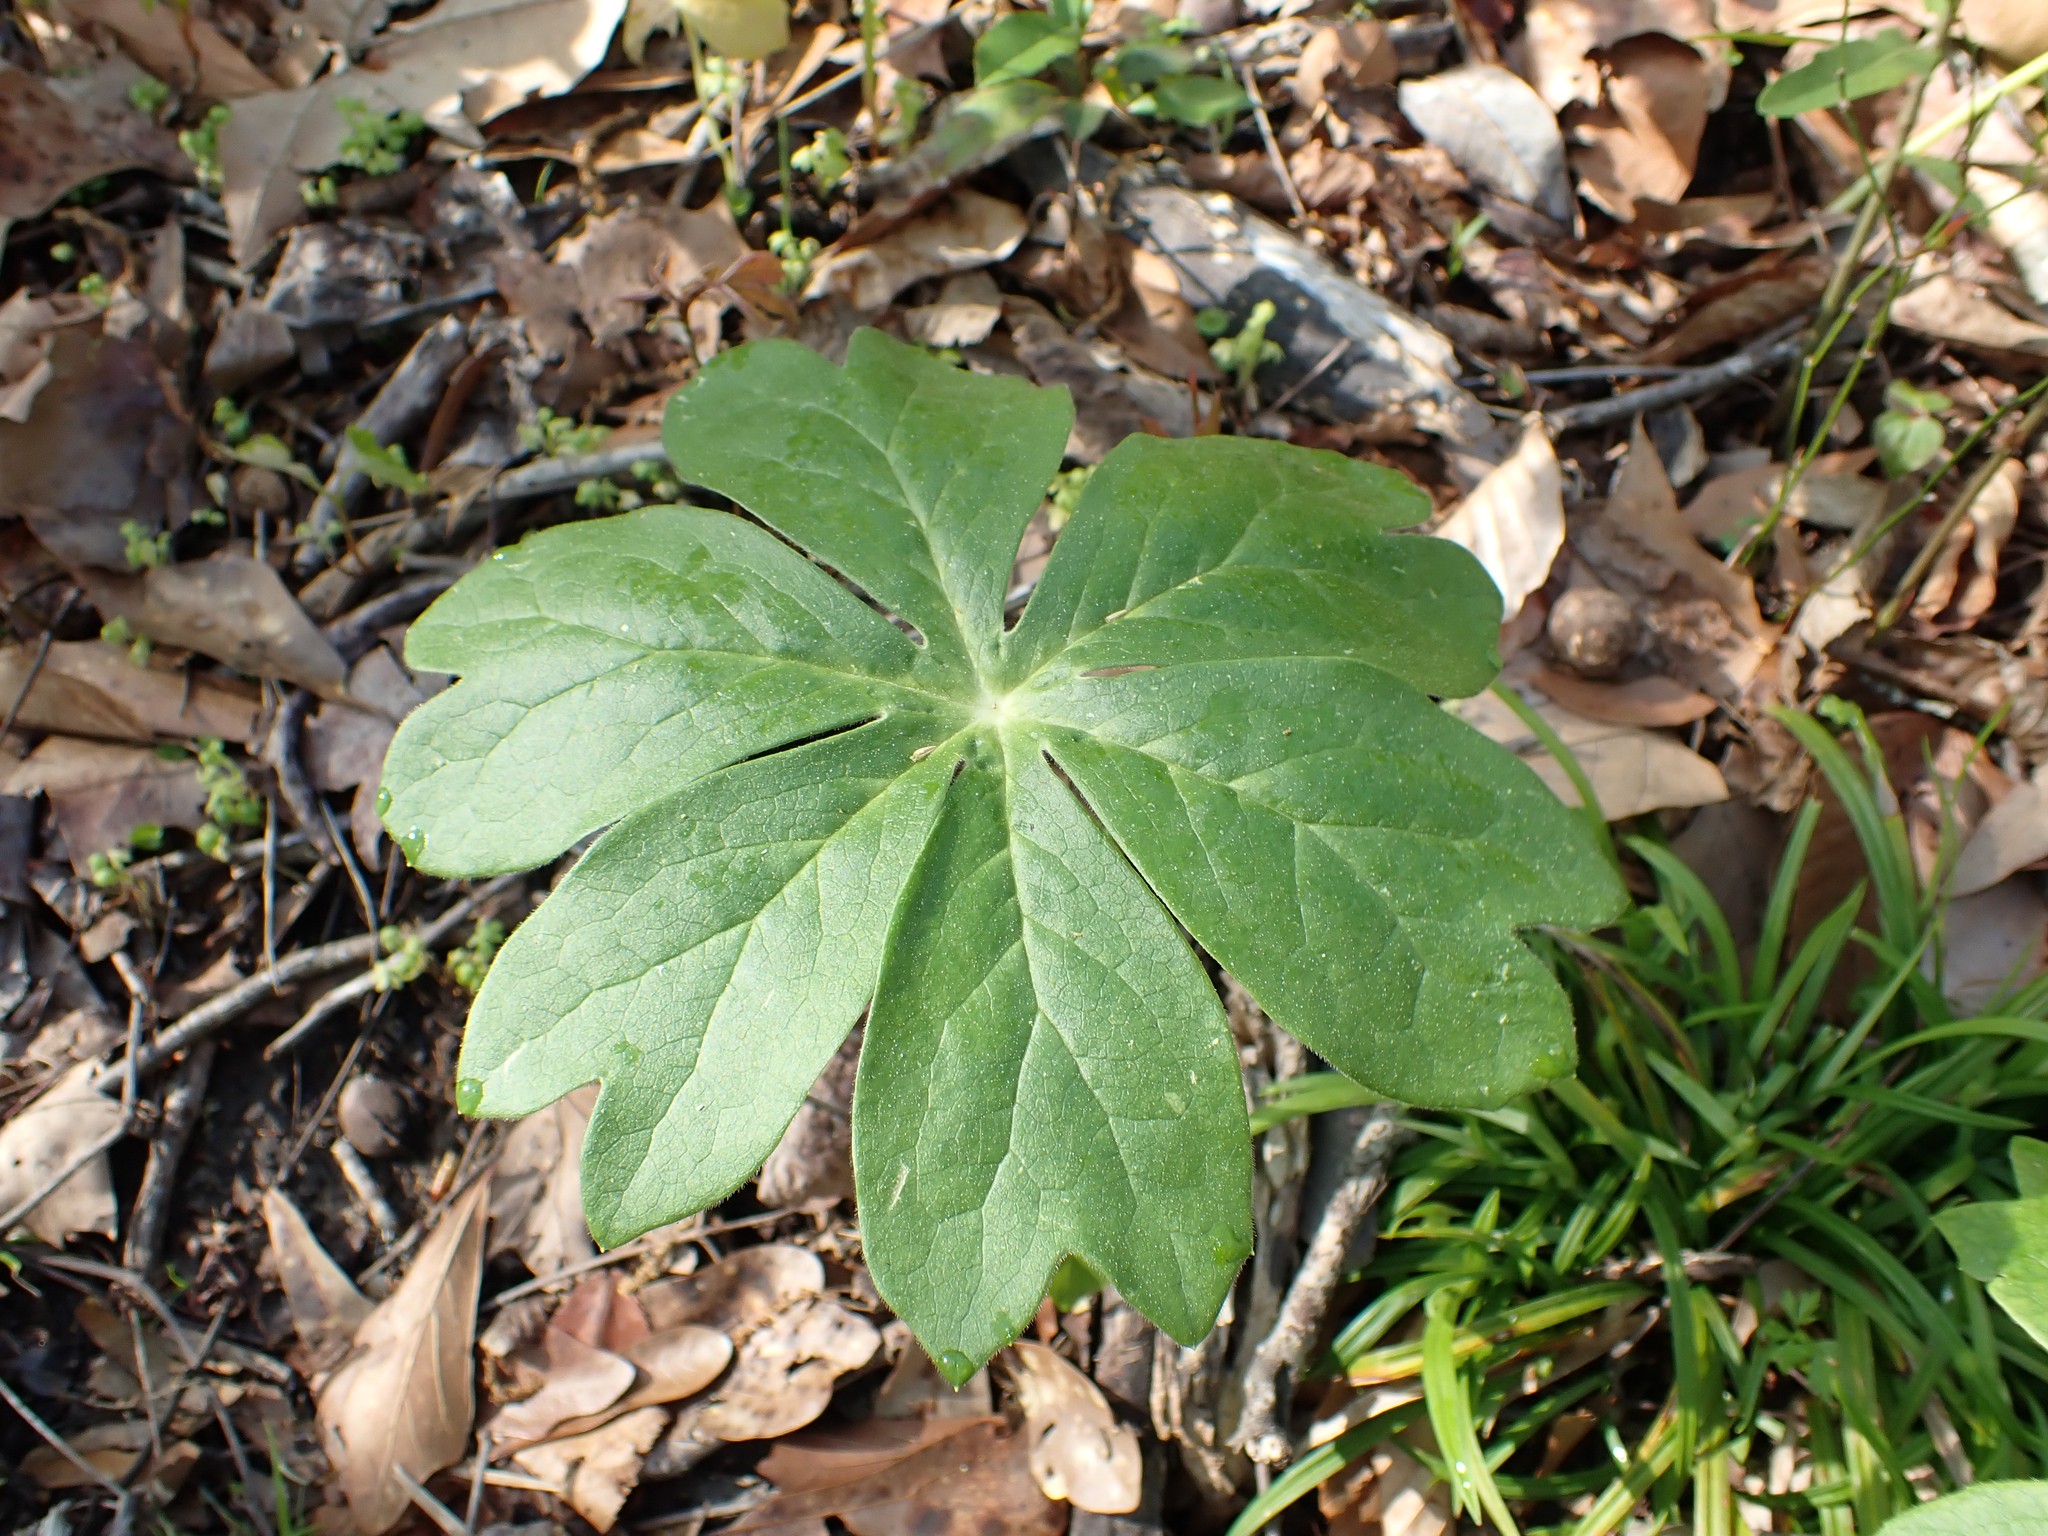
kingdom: Plantae
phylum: Tracheophyta
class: Magnoliopsida
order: Ranunculales
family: Berberidaceae
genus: Podophyllum
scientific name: Podophyllum peltatum
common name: Wild mandrake
